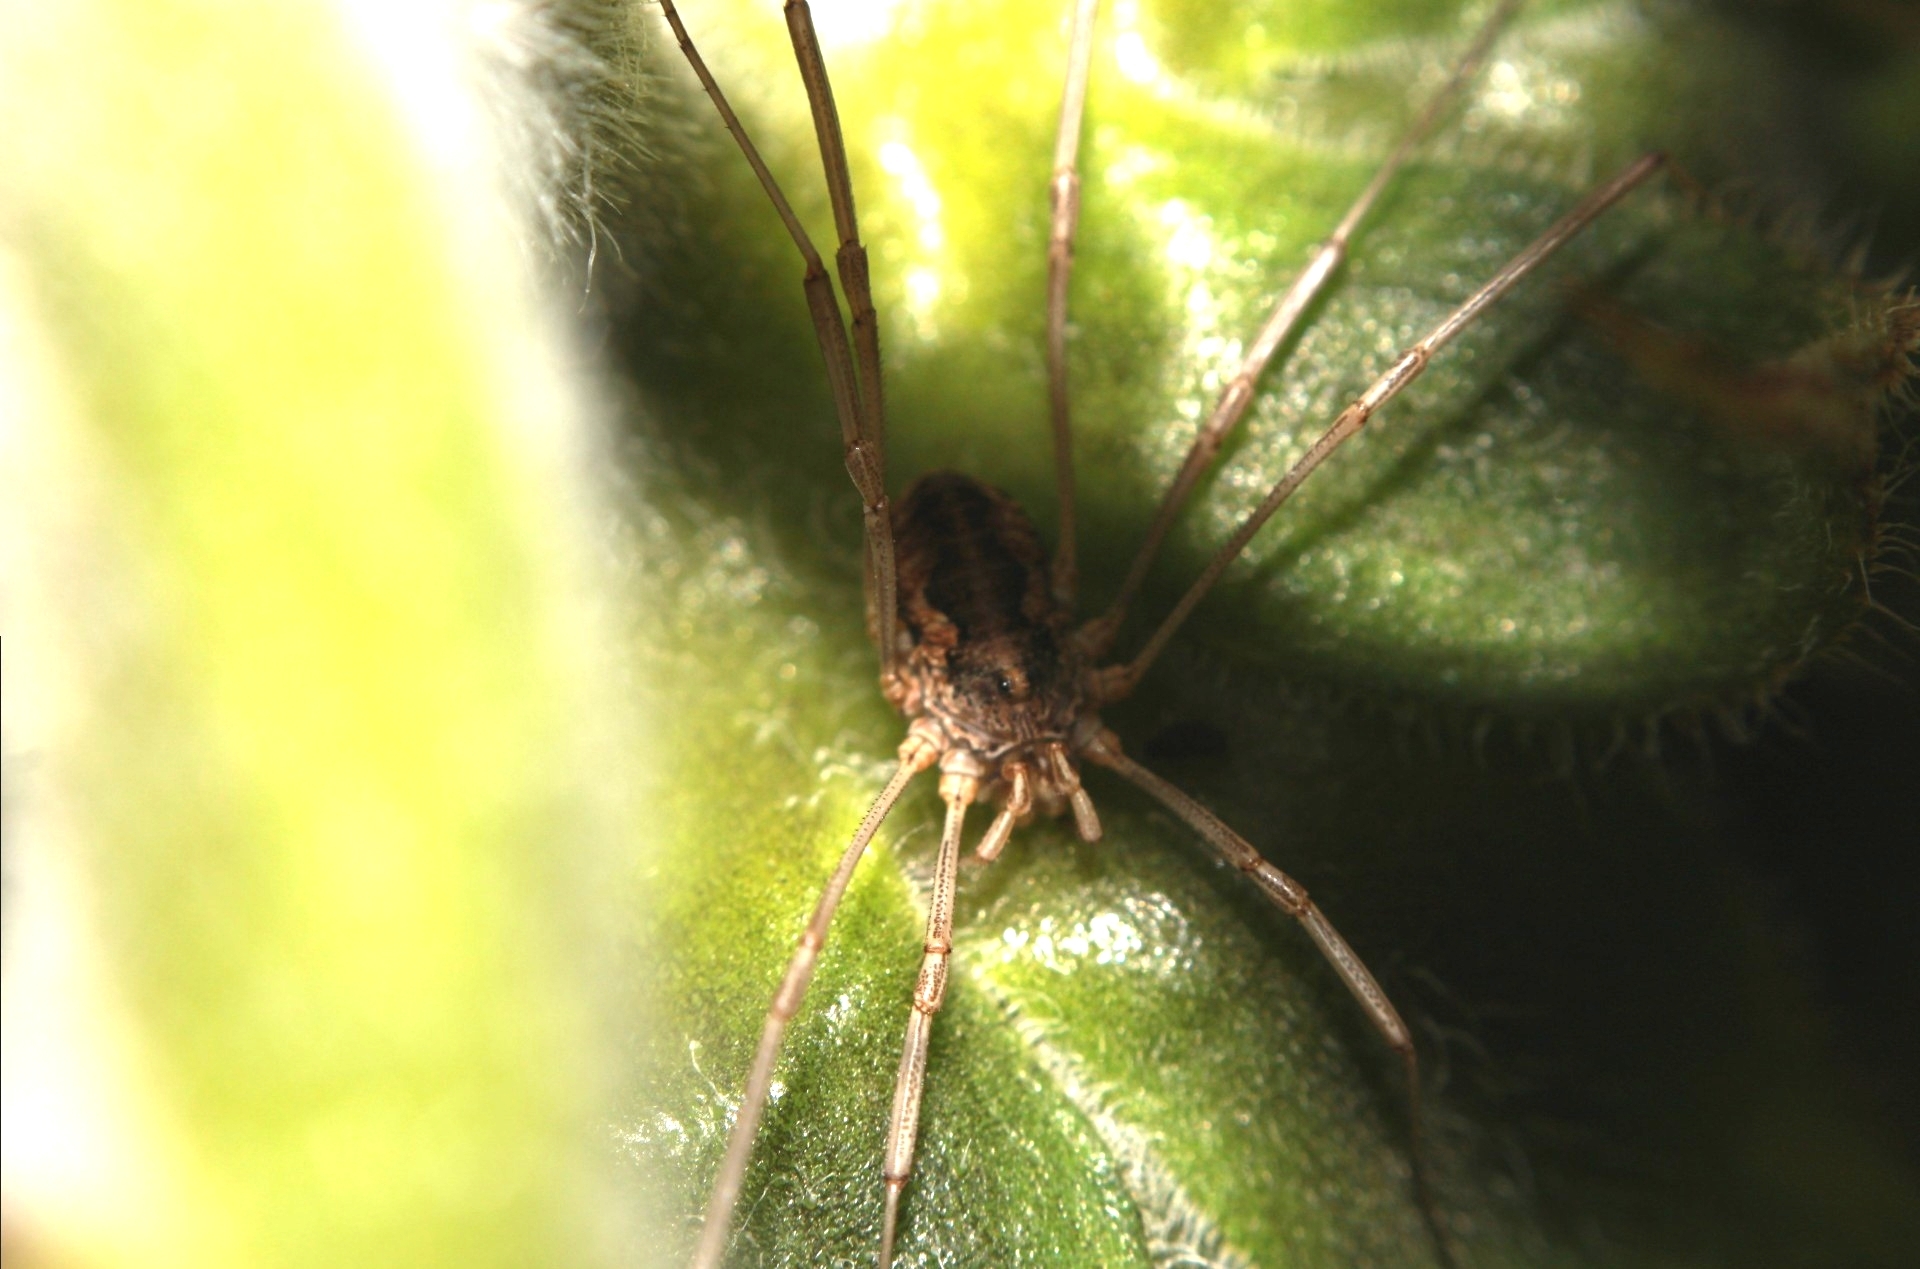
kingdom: Animalia
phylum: Arthropoda
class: Arachnida
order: Opiliones
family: Phalangiidae
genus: Phalangium
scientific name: Phalangium opilio
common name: Daddy longleg
